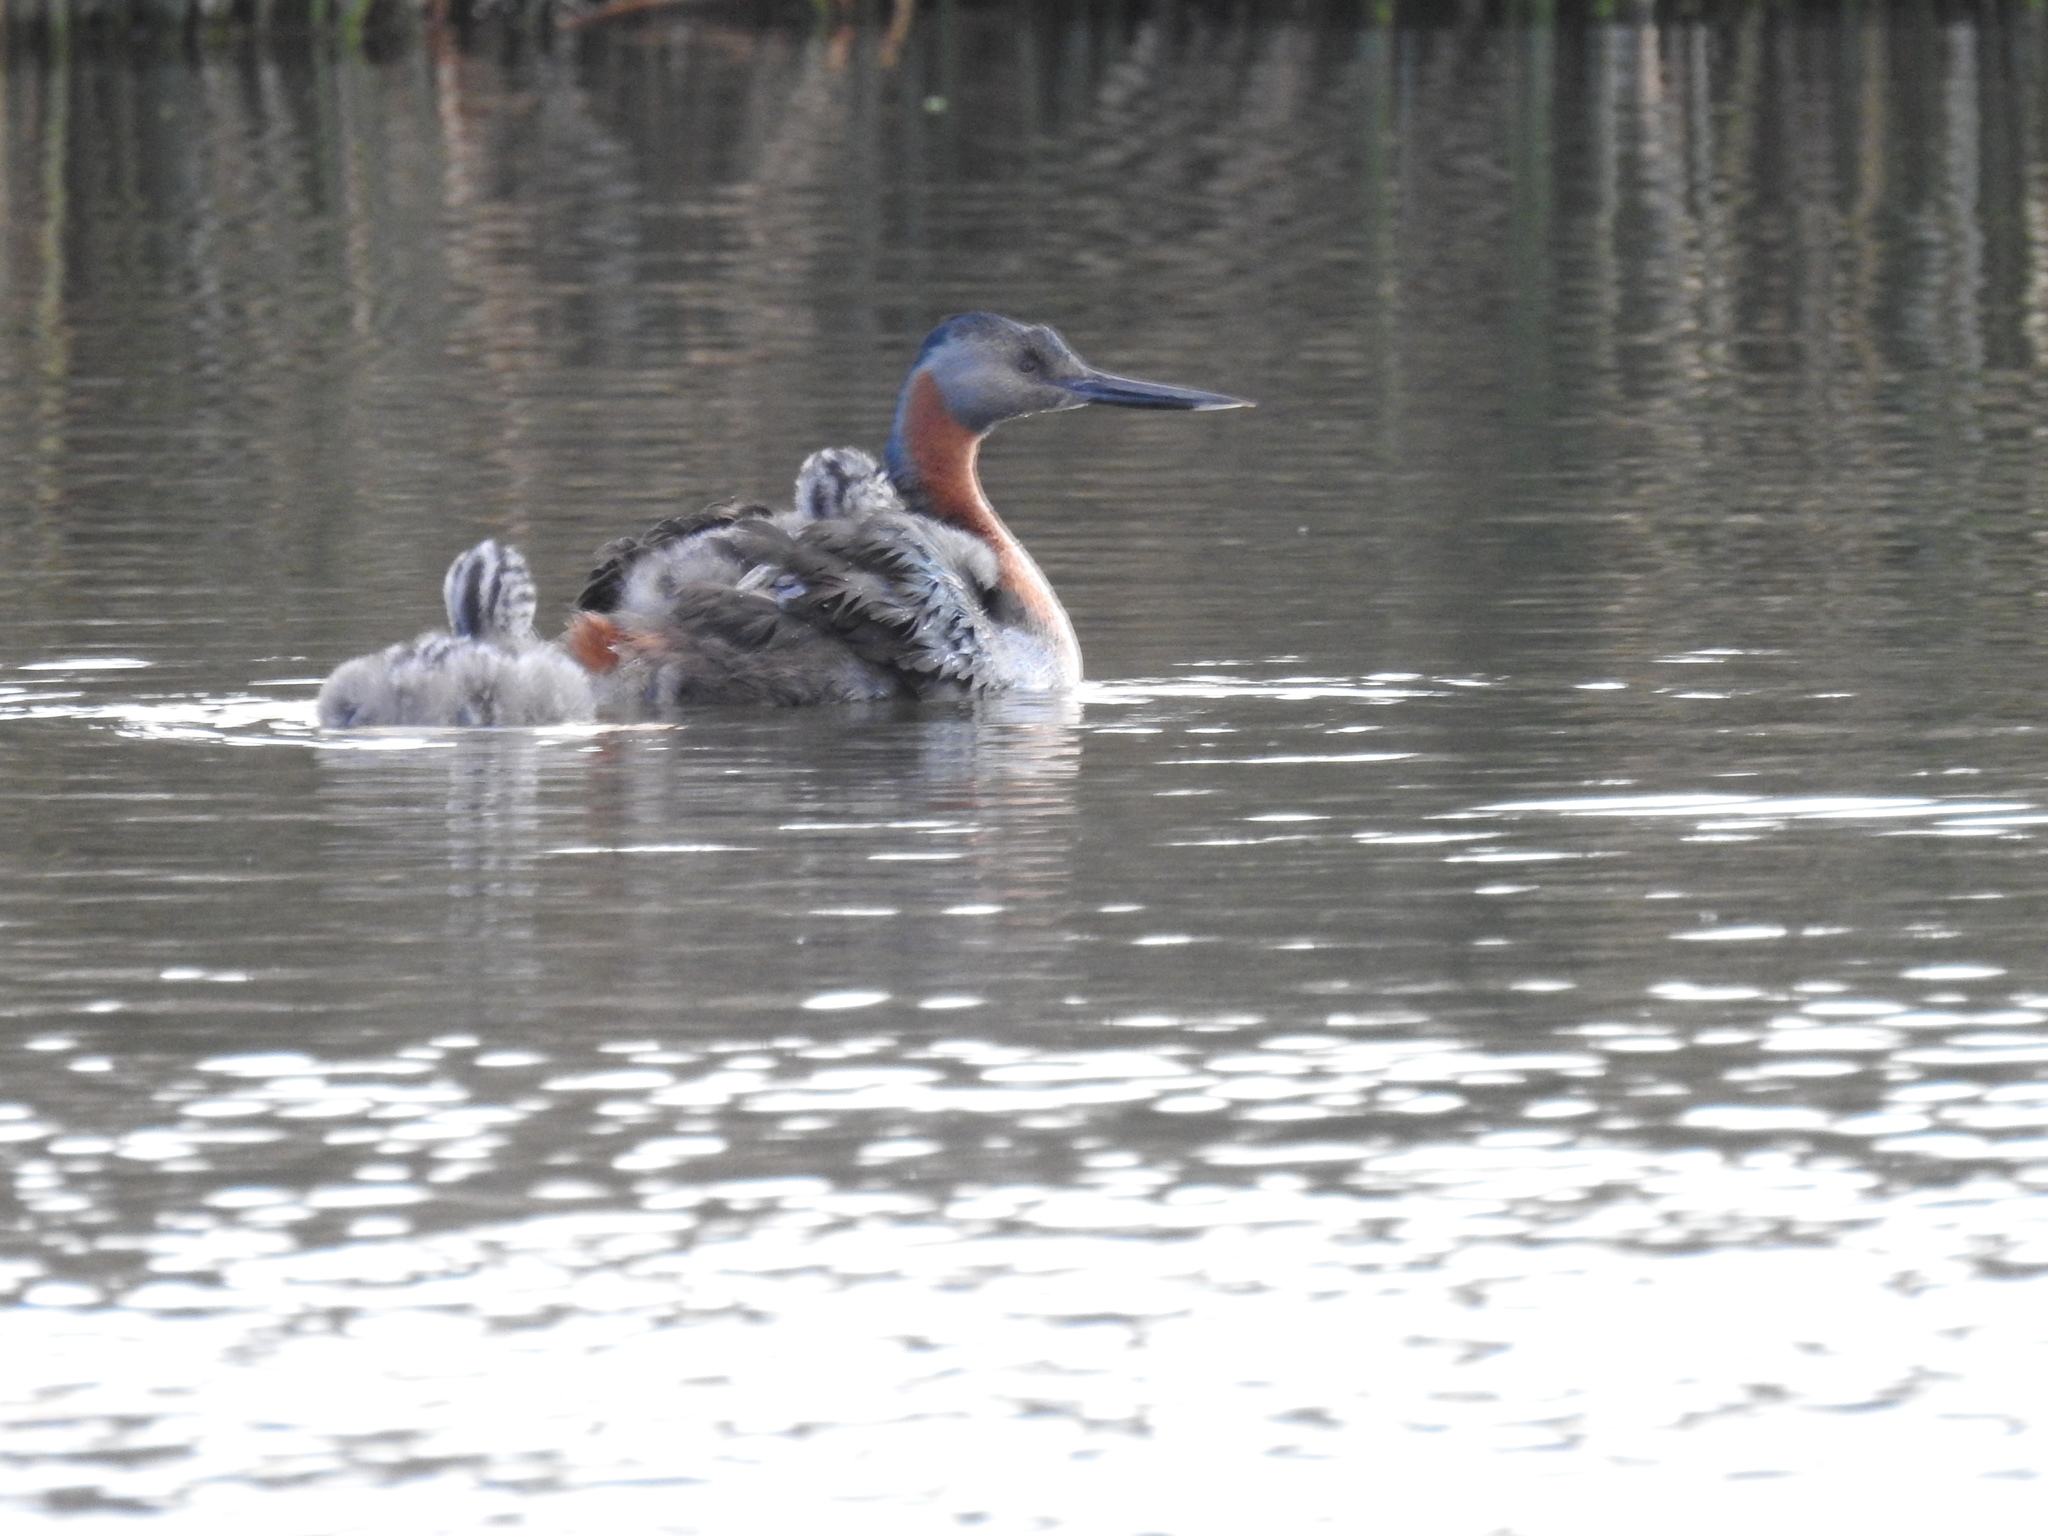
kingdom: Animalia
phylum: Chordata
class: Aves
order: Podicipediformes
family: Podicipedidae
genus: Podiceps
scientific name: Podiceps major
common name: Great grebe
